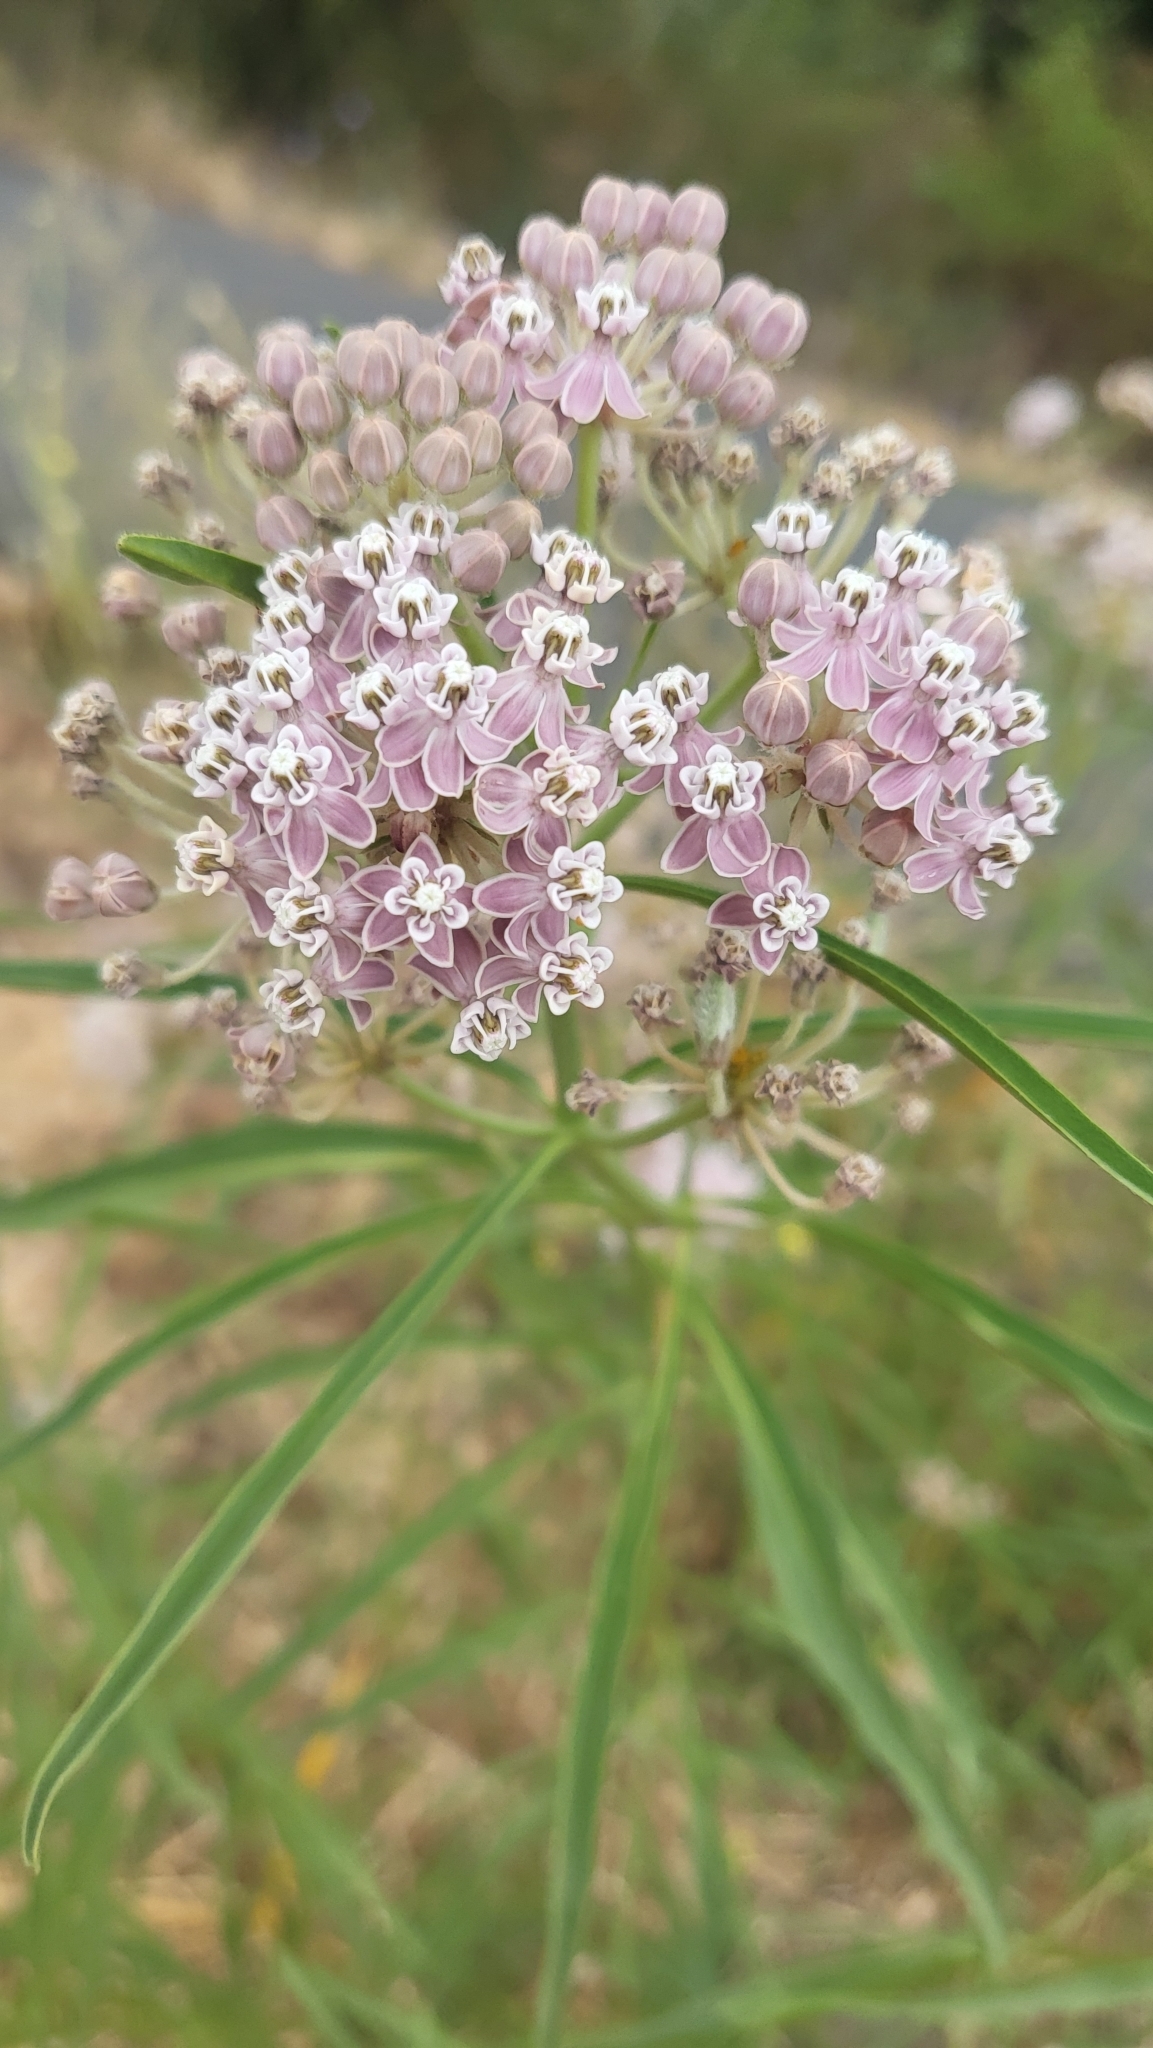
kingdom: Plantae
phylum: Tracheophyta
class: Magnoliopsida
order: Gentianales
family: Apocynaceae
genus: Asclepias
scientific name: Asclepias fascicularis
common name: Mexican milkweed
